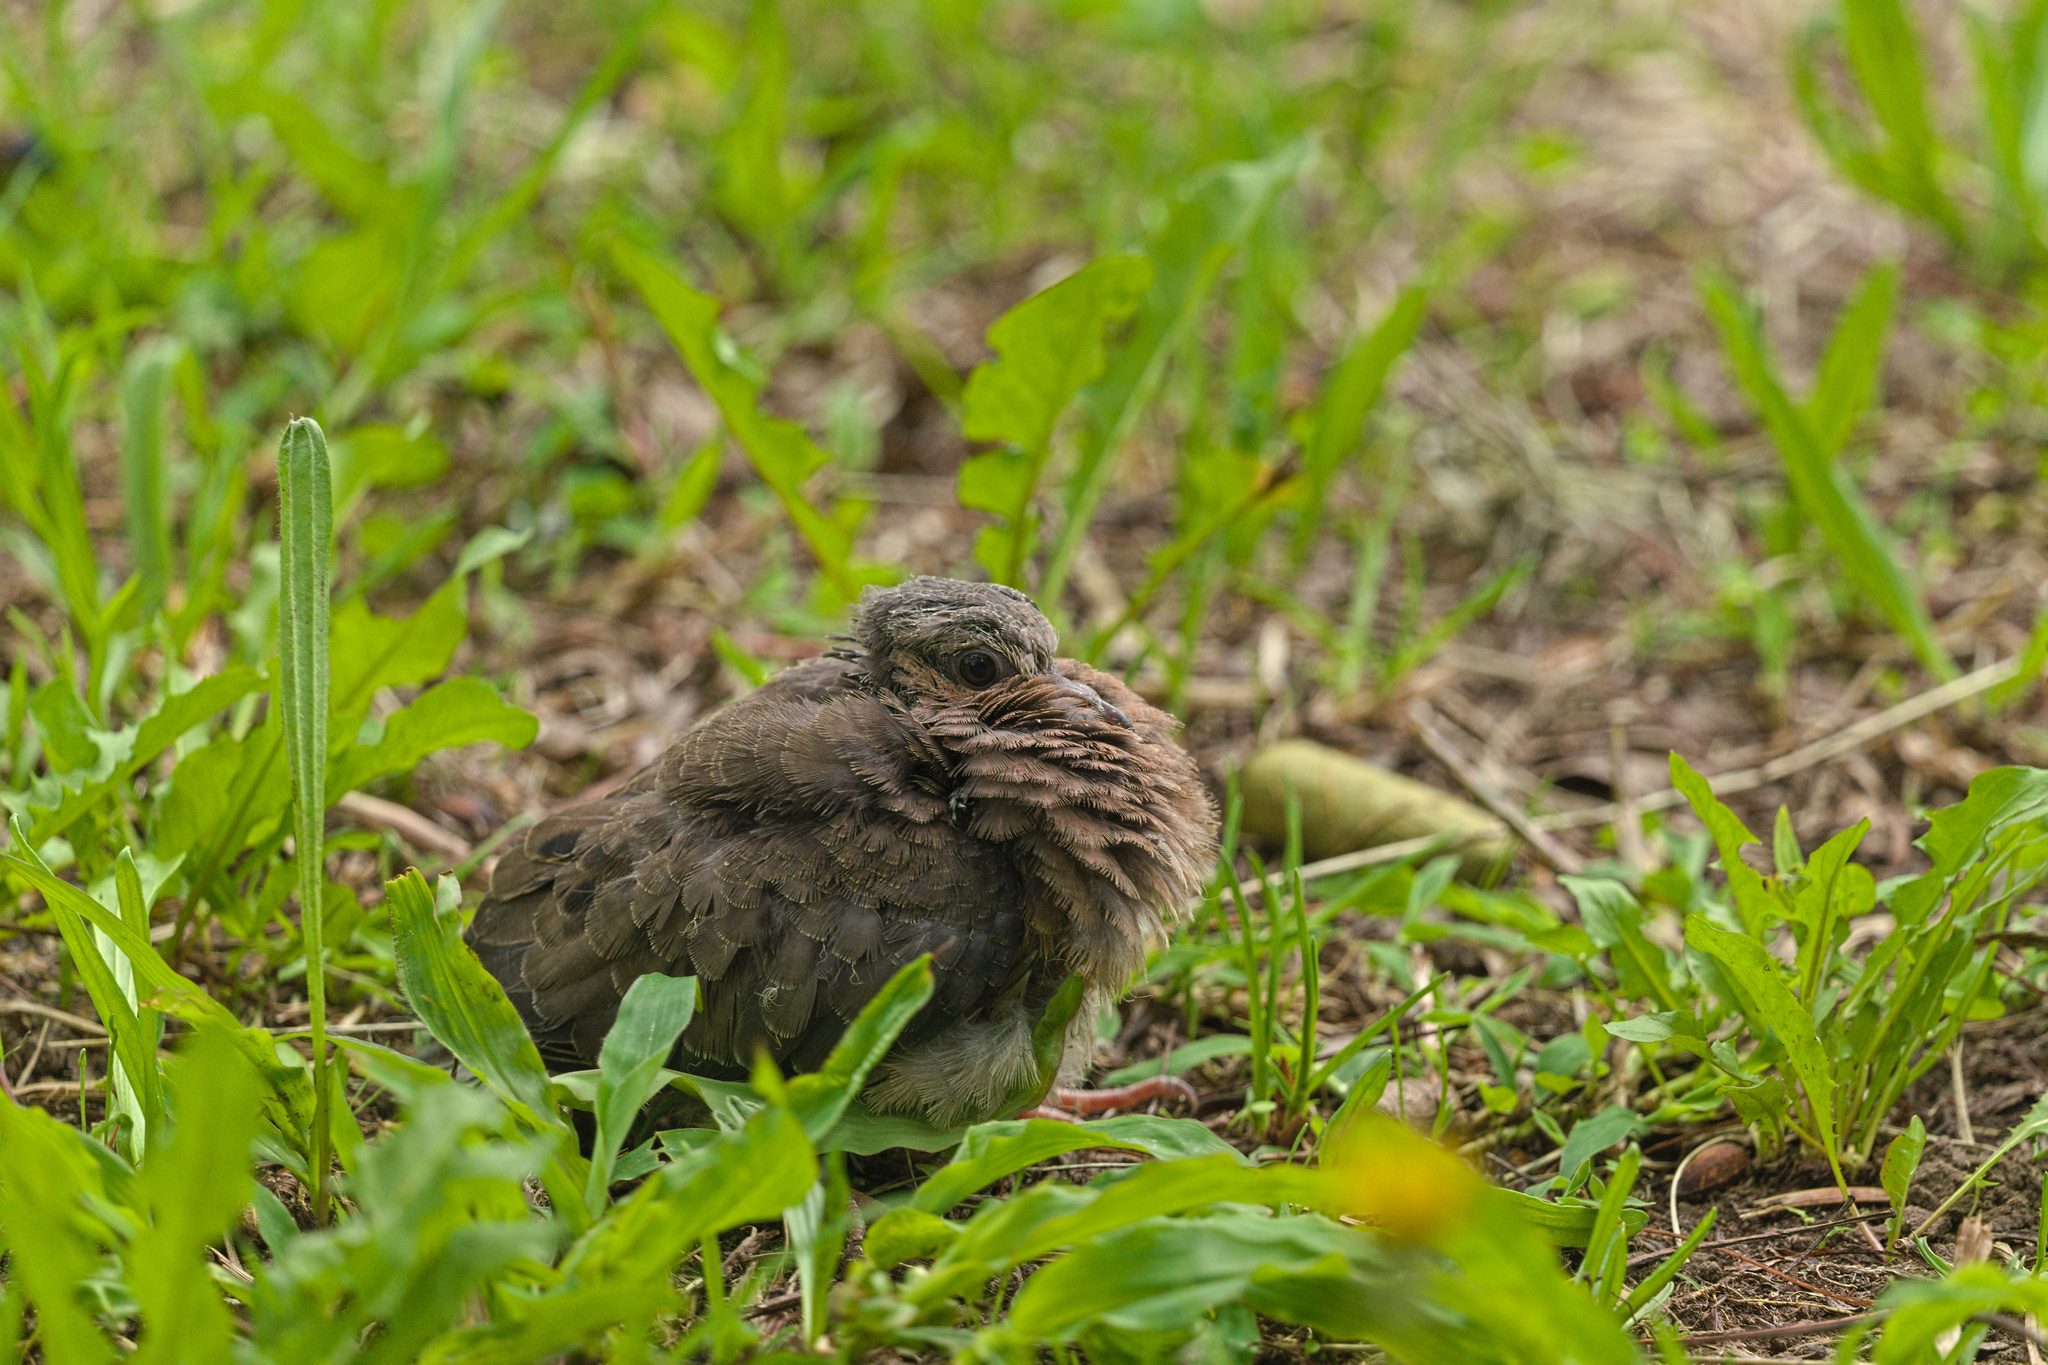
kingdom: Animalia
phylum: Chordata
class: Aves
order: Columbiformes
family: Columbidae
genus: Zenaida
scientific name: Zenaida auriculata
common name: Eared dove
